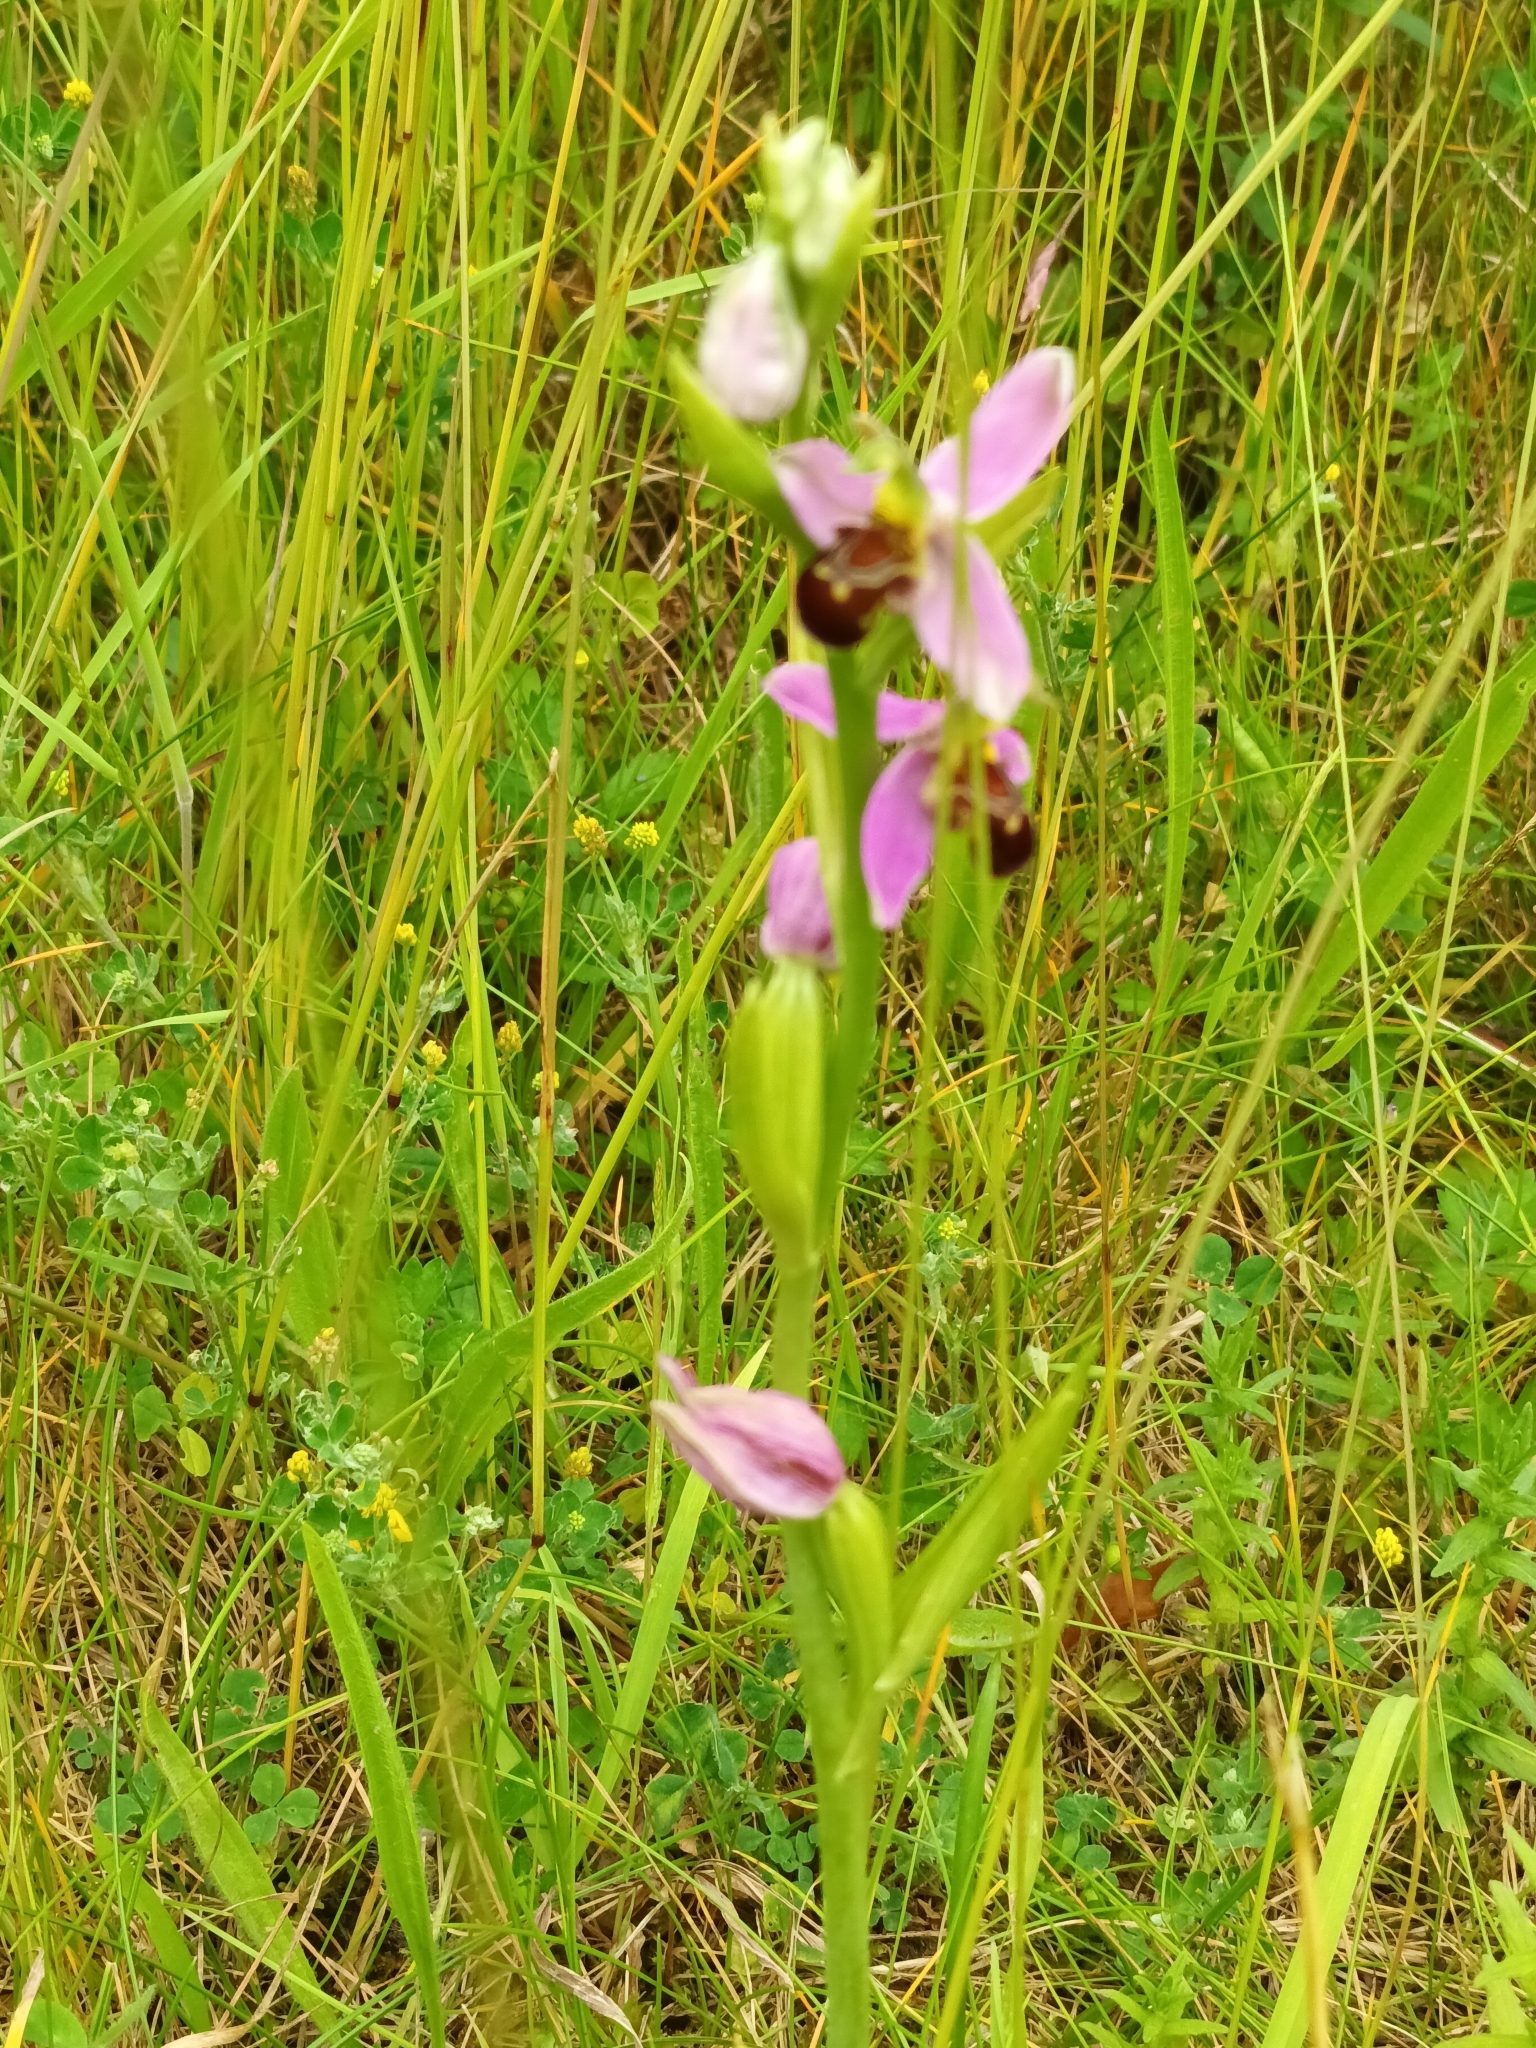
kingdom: Plantae
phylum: Tracheophyta
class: Liliopsida
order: Asparagales
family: Orchidaceae
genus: Ophrys
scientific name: Ophrys apifera
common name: Bee orchid
